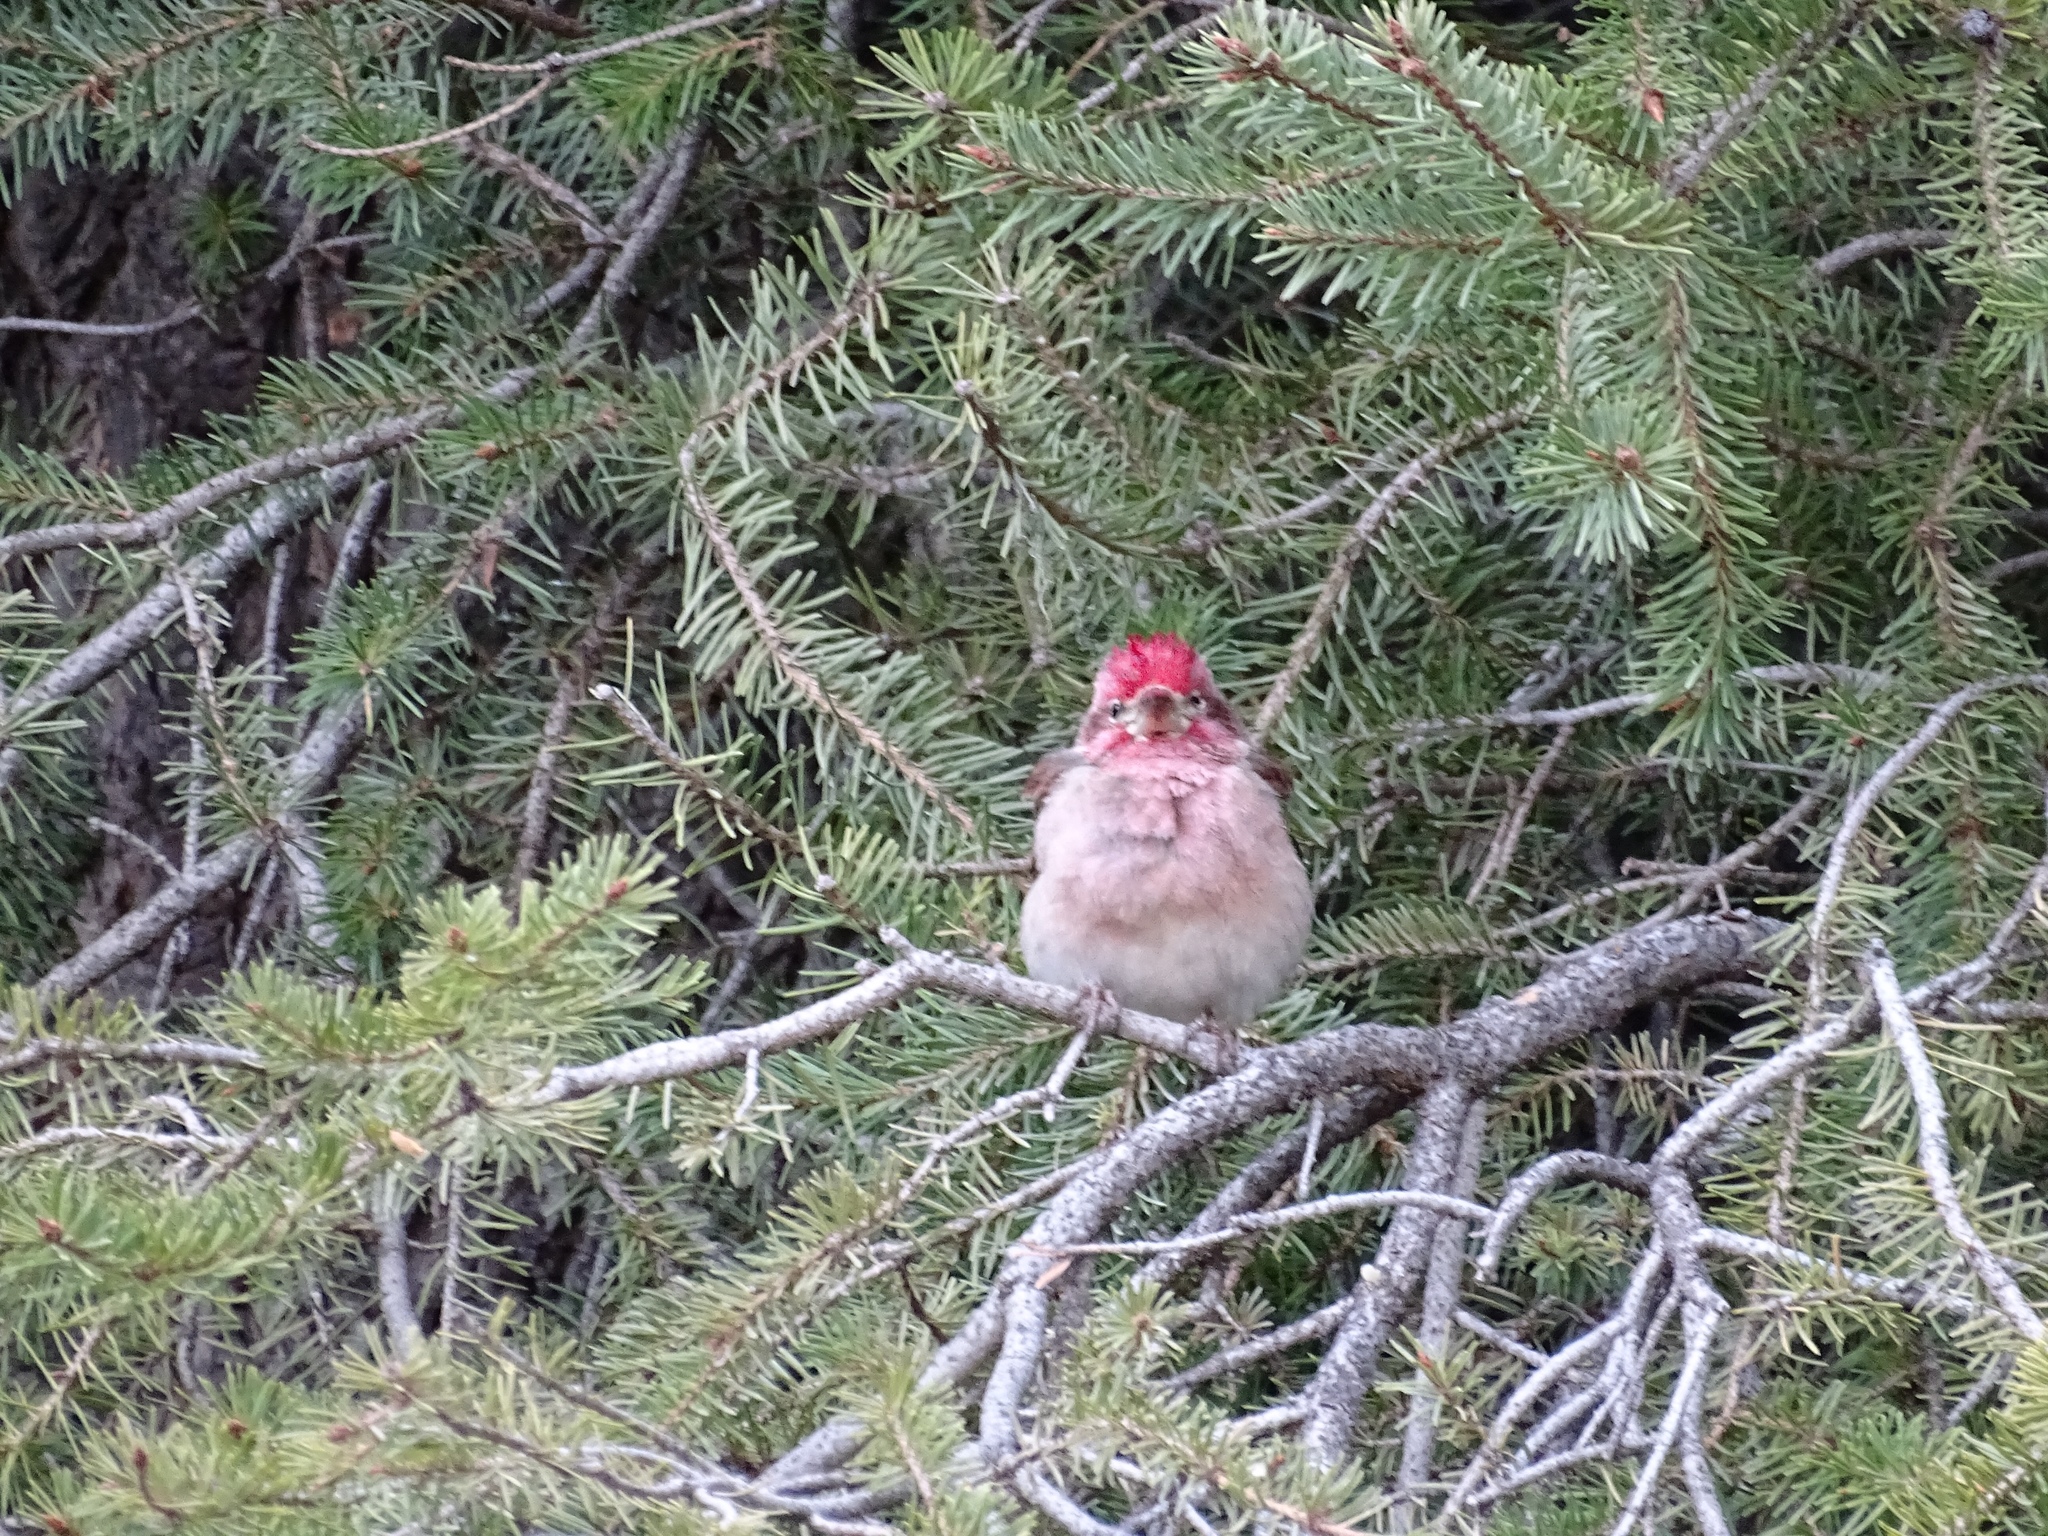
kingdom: Animalia
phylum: Chordata
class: Aves
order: Passeriformes
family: Fringillidae
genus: Haemorhous
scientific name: Haemorhous cassinii
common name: Cassin's finch
